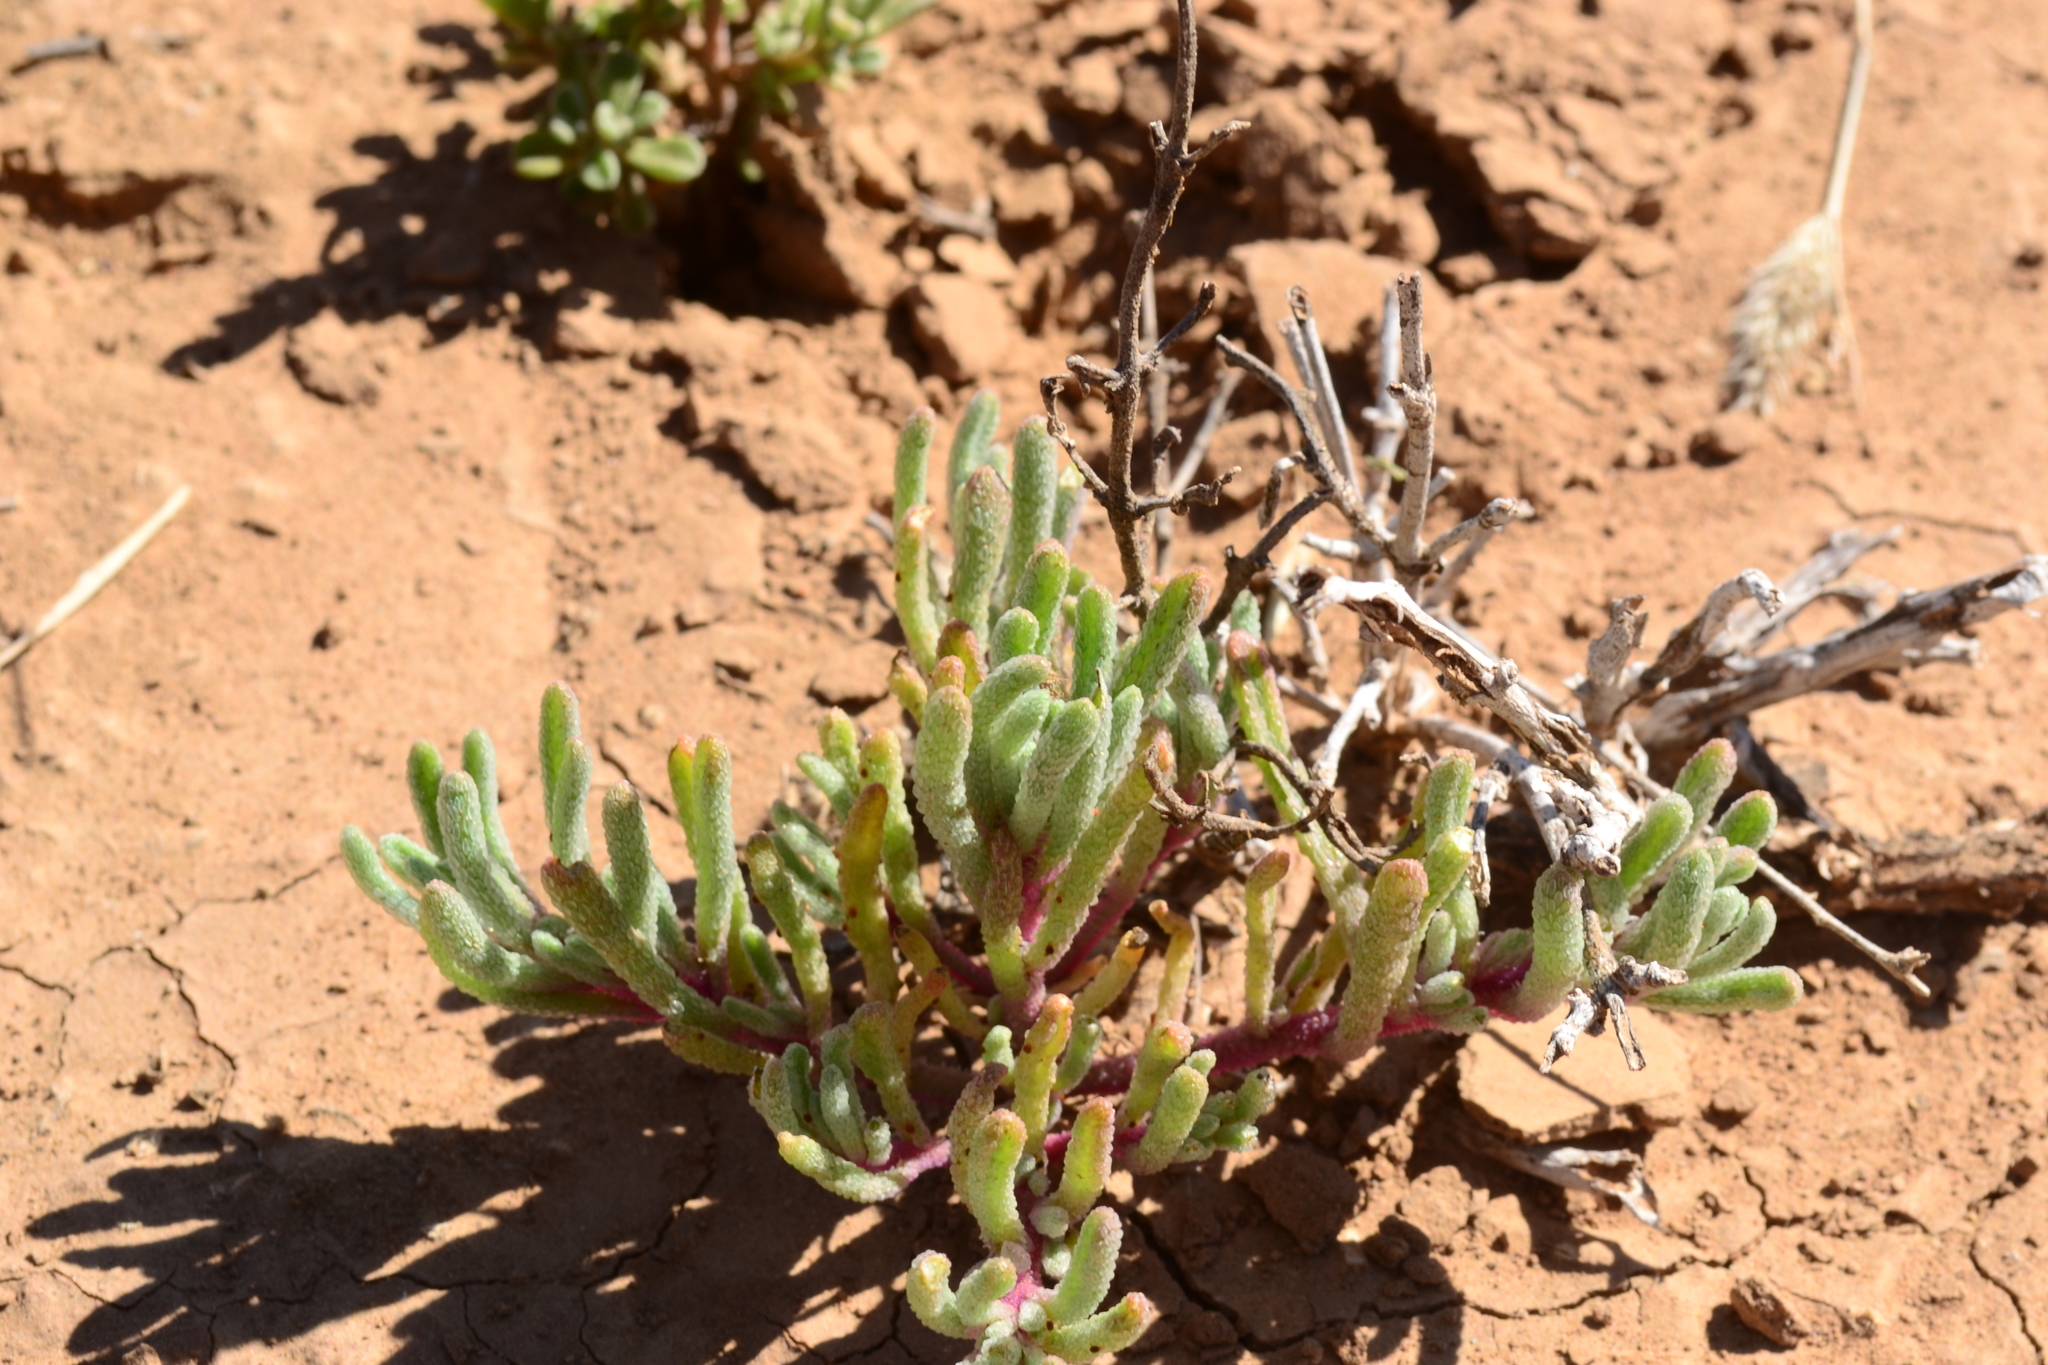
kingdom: Plantae
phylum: Tracheophyta
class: Magnoliopsida
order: Caryophyllales
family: Aizoaceae
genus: Mesembryanthemum
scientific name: Mesembryanthemum nodiflorum
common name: Slenderleaf iceplant
